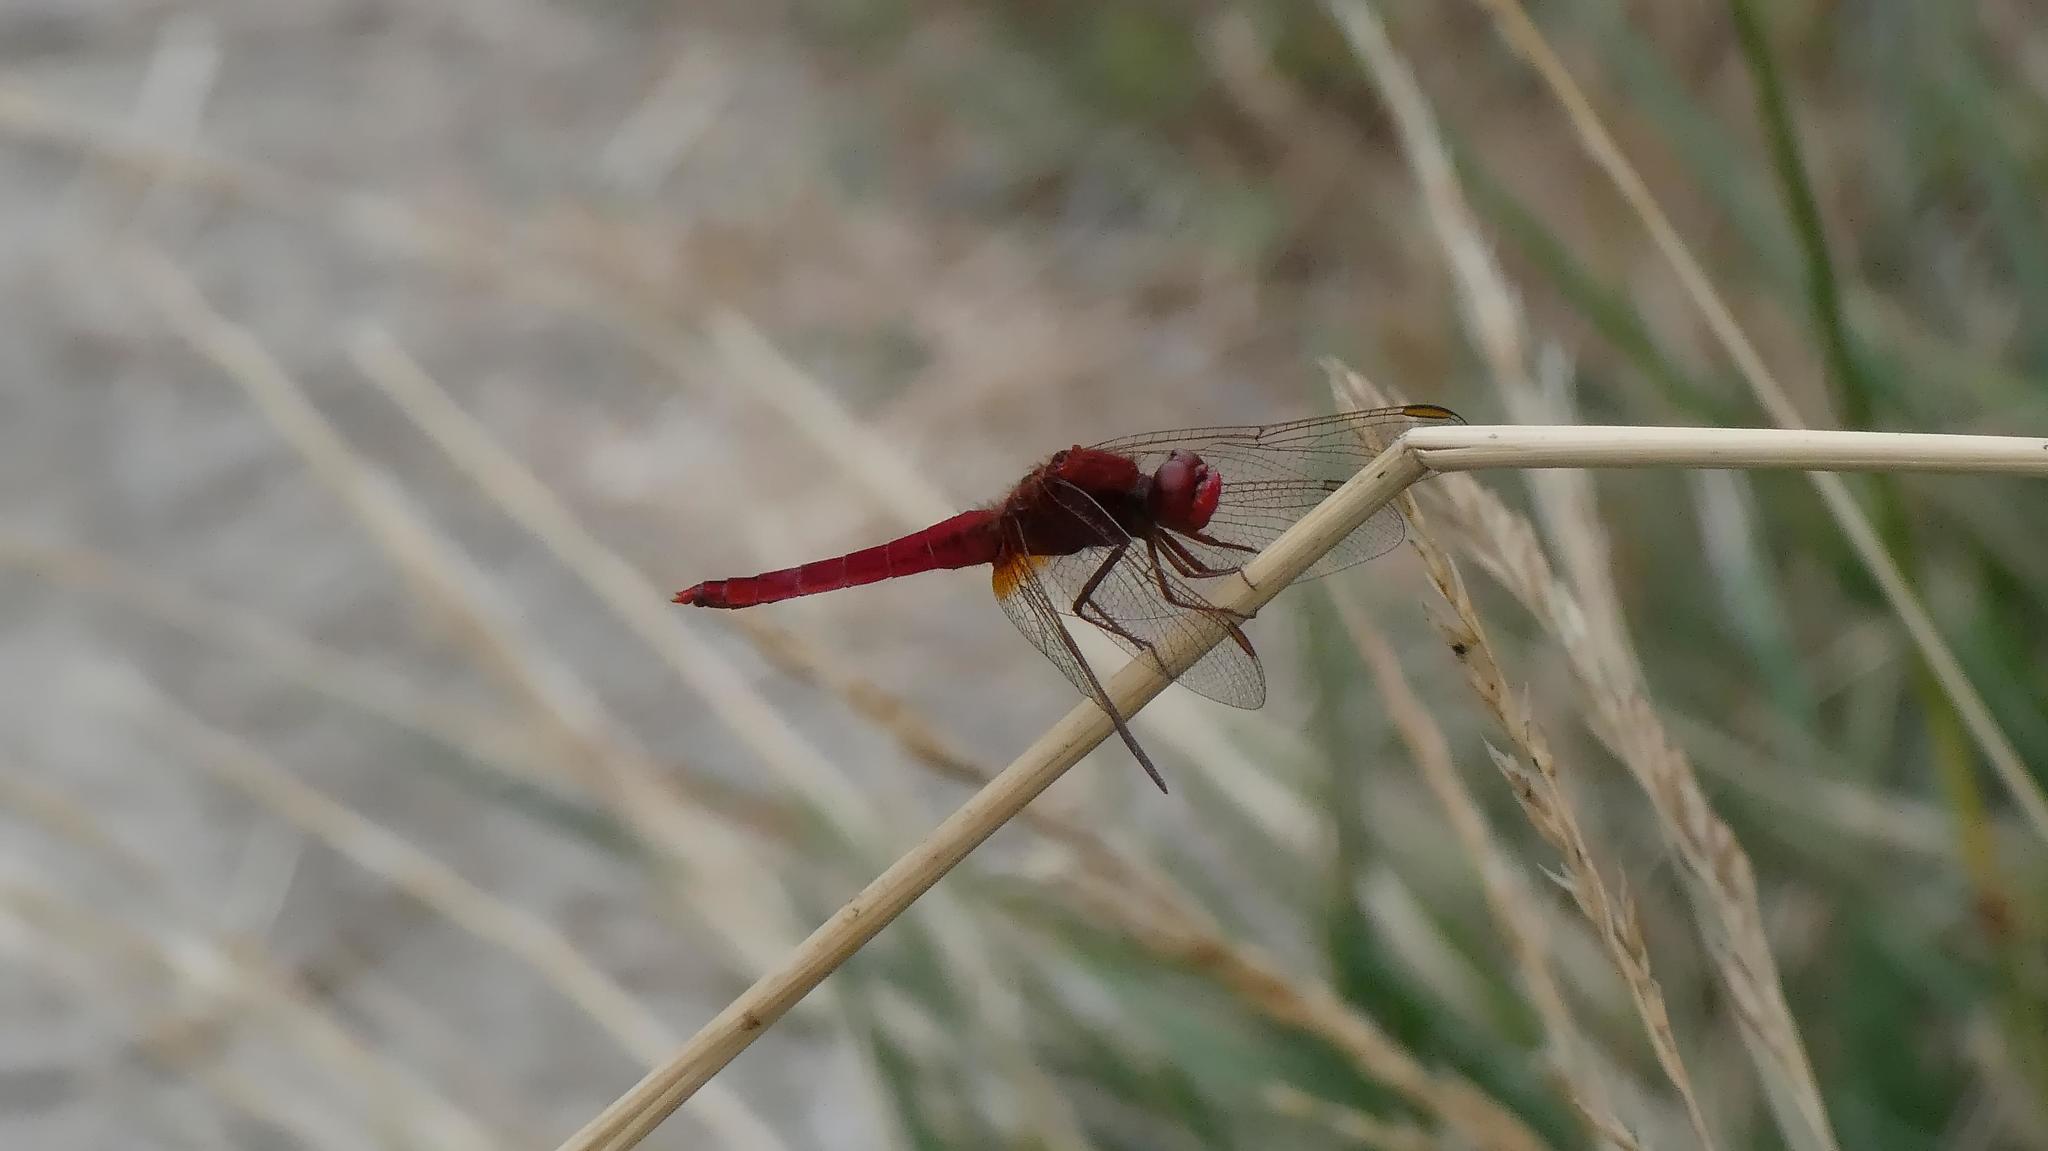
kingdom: Animalia
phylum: Arthropoda
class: Insecta
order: Odonata
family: Libellulidae
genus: Crocothemis
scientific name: Crocothemis erythraea
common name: Scarlet dragonfly
